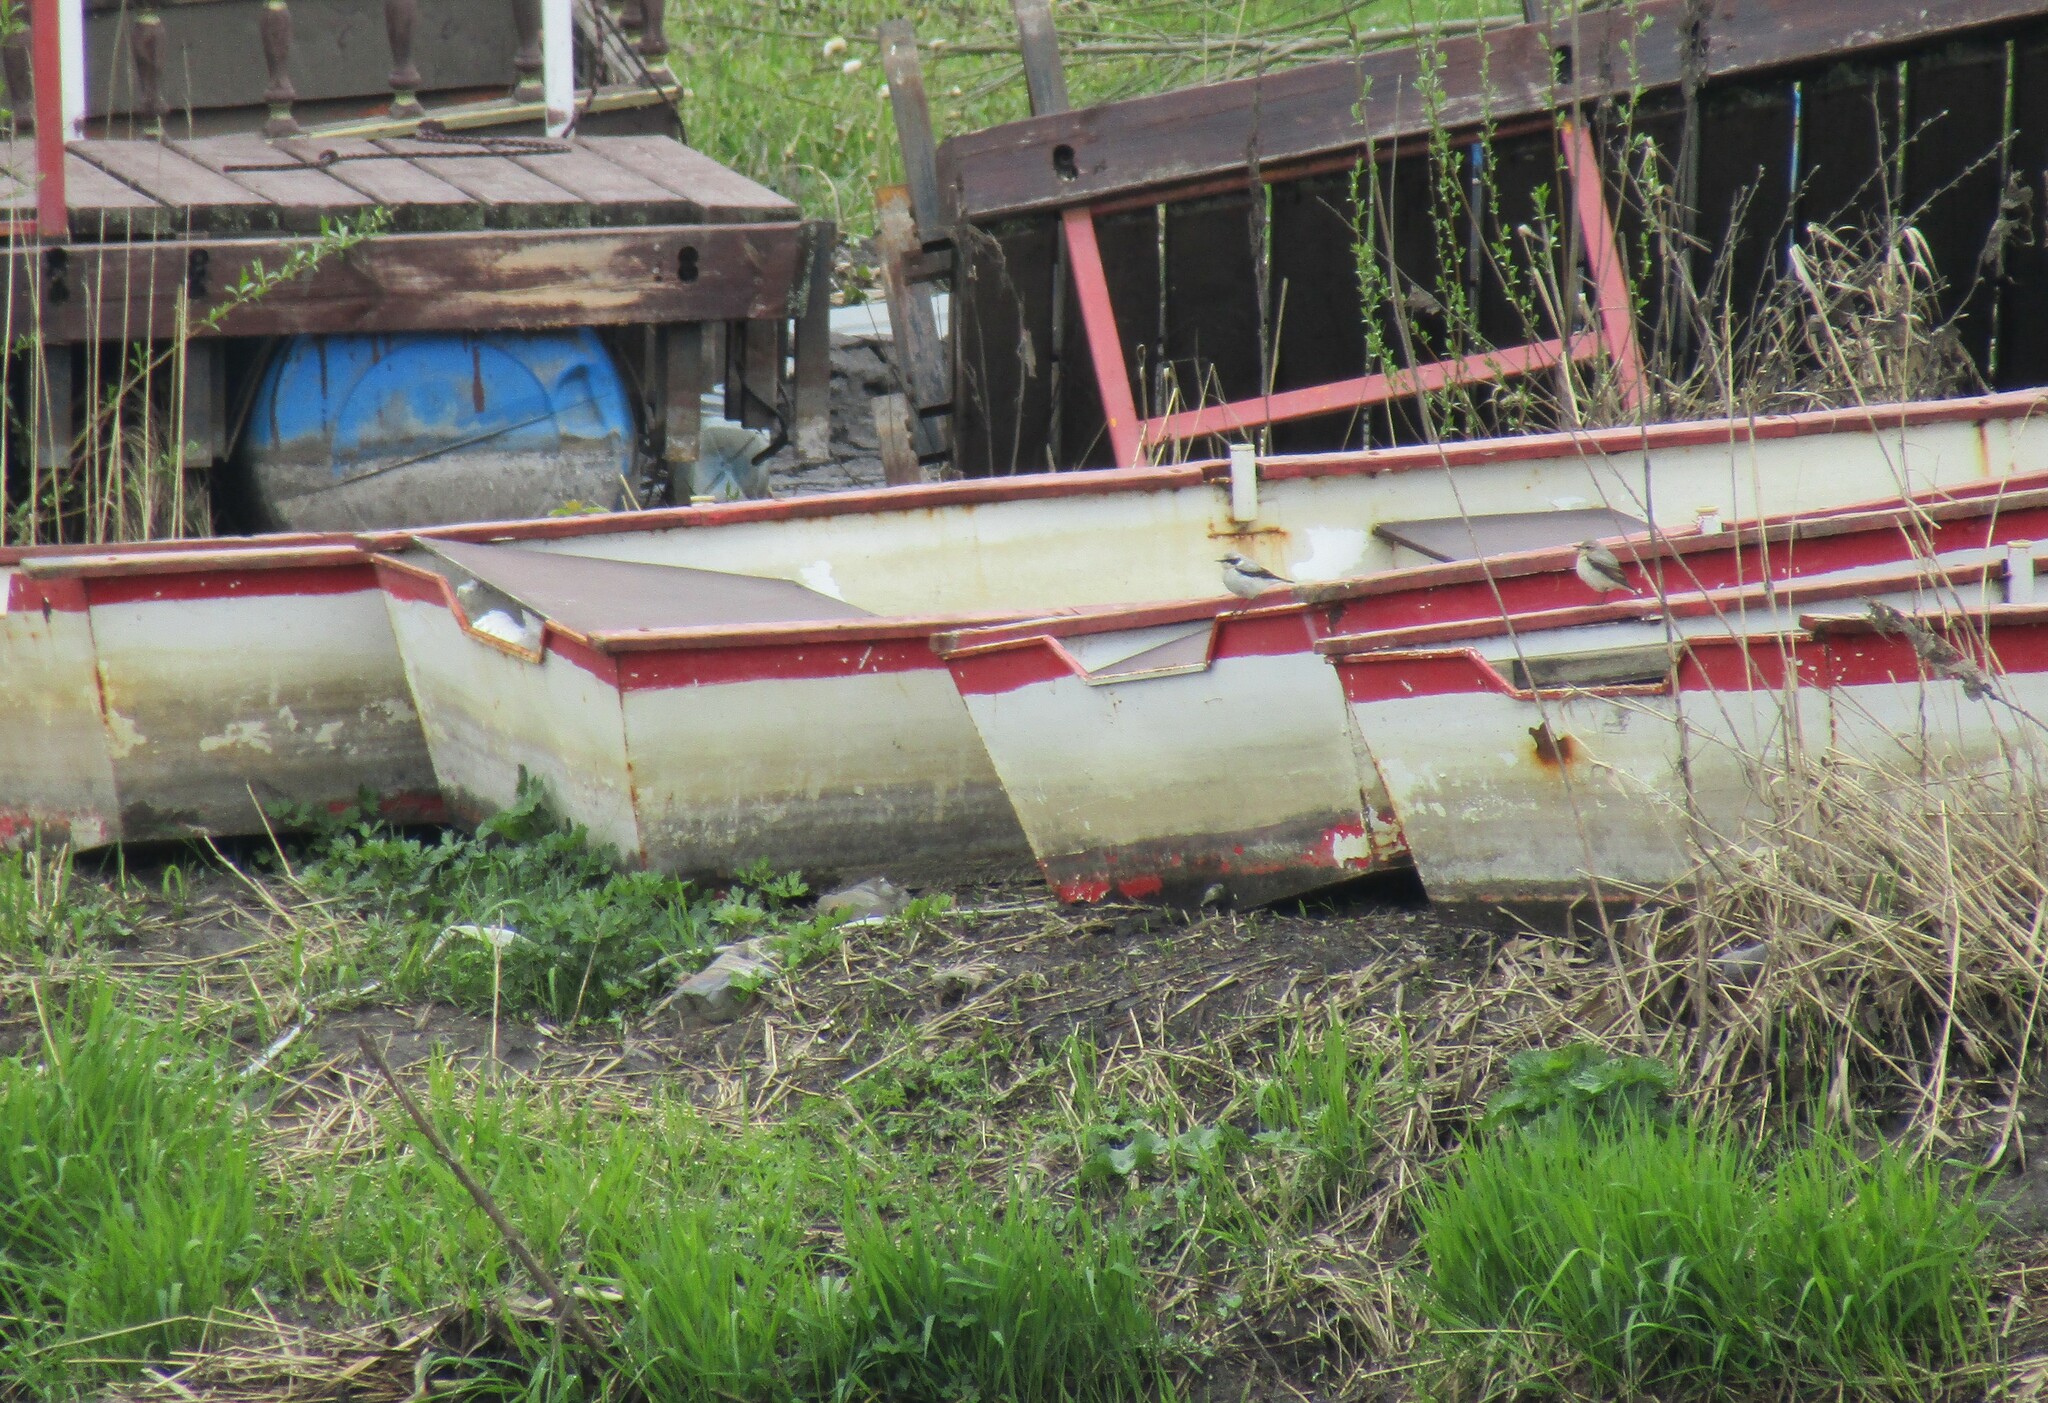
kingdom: Animalia
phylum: Chordata
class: Aves
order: Passeriformes
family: Muscicapidae
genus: Oenanthe
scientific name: Oenanthe oenanthe
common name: Northern wheatear
